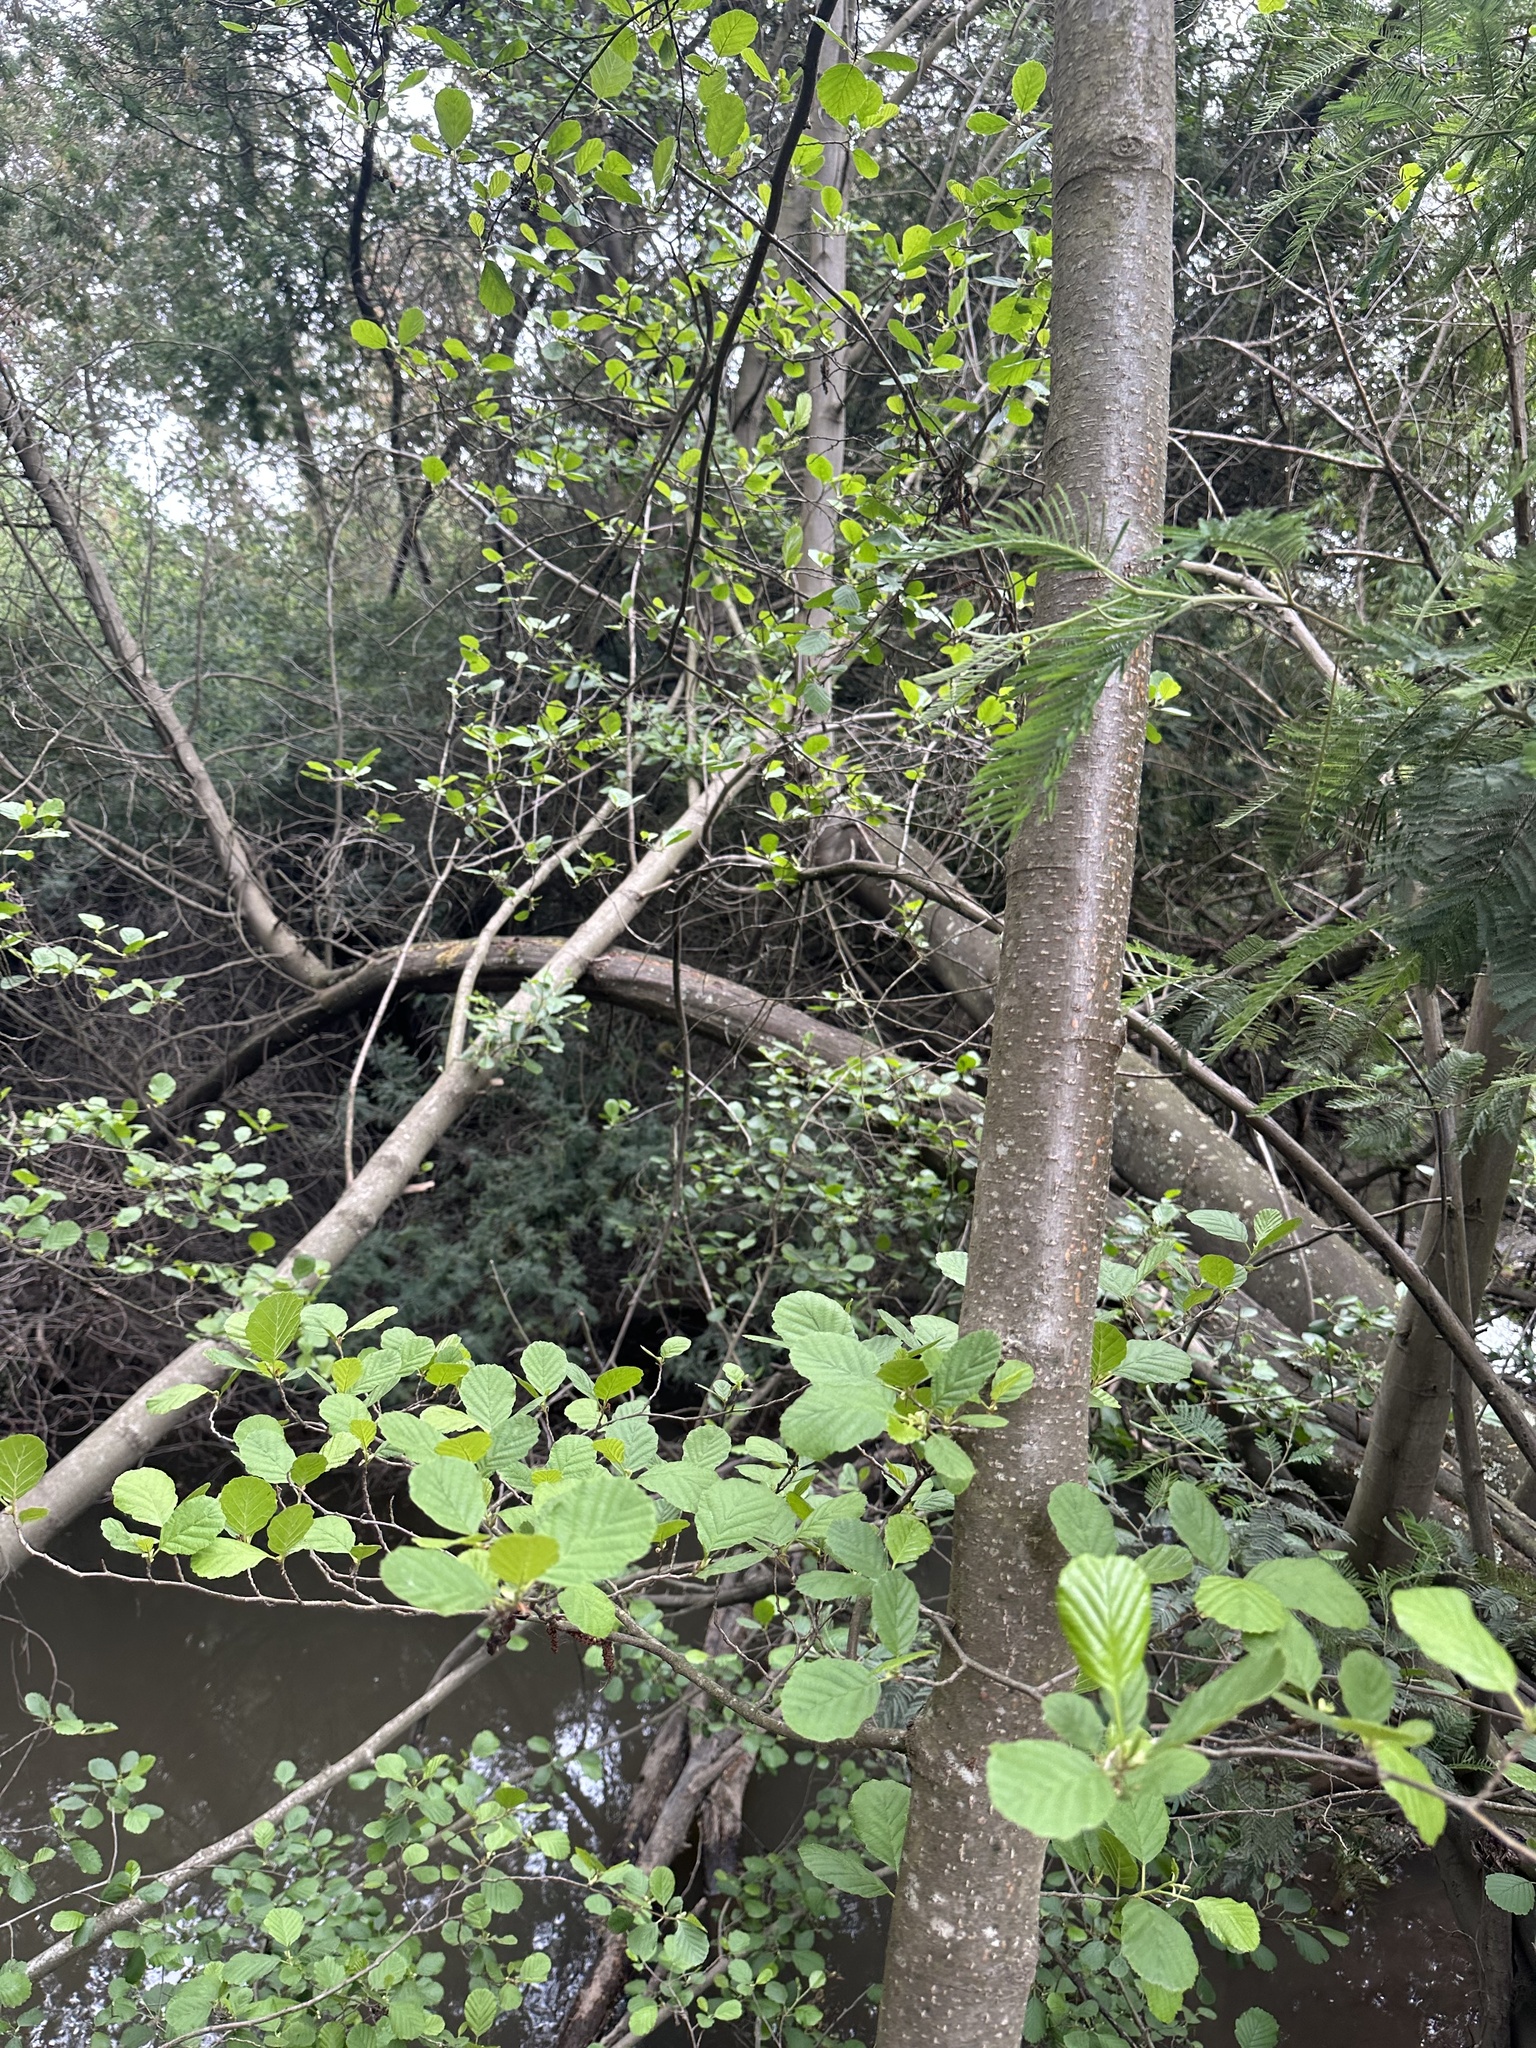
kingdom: Plantae
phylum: Tracheophyta
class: Magnoliopsida
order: Fagales
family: Betulaceae
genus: Alnus
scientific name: Alnus glutinosa
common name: Black alder
